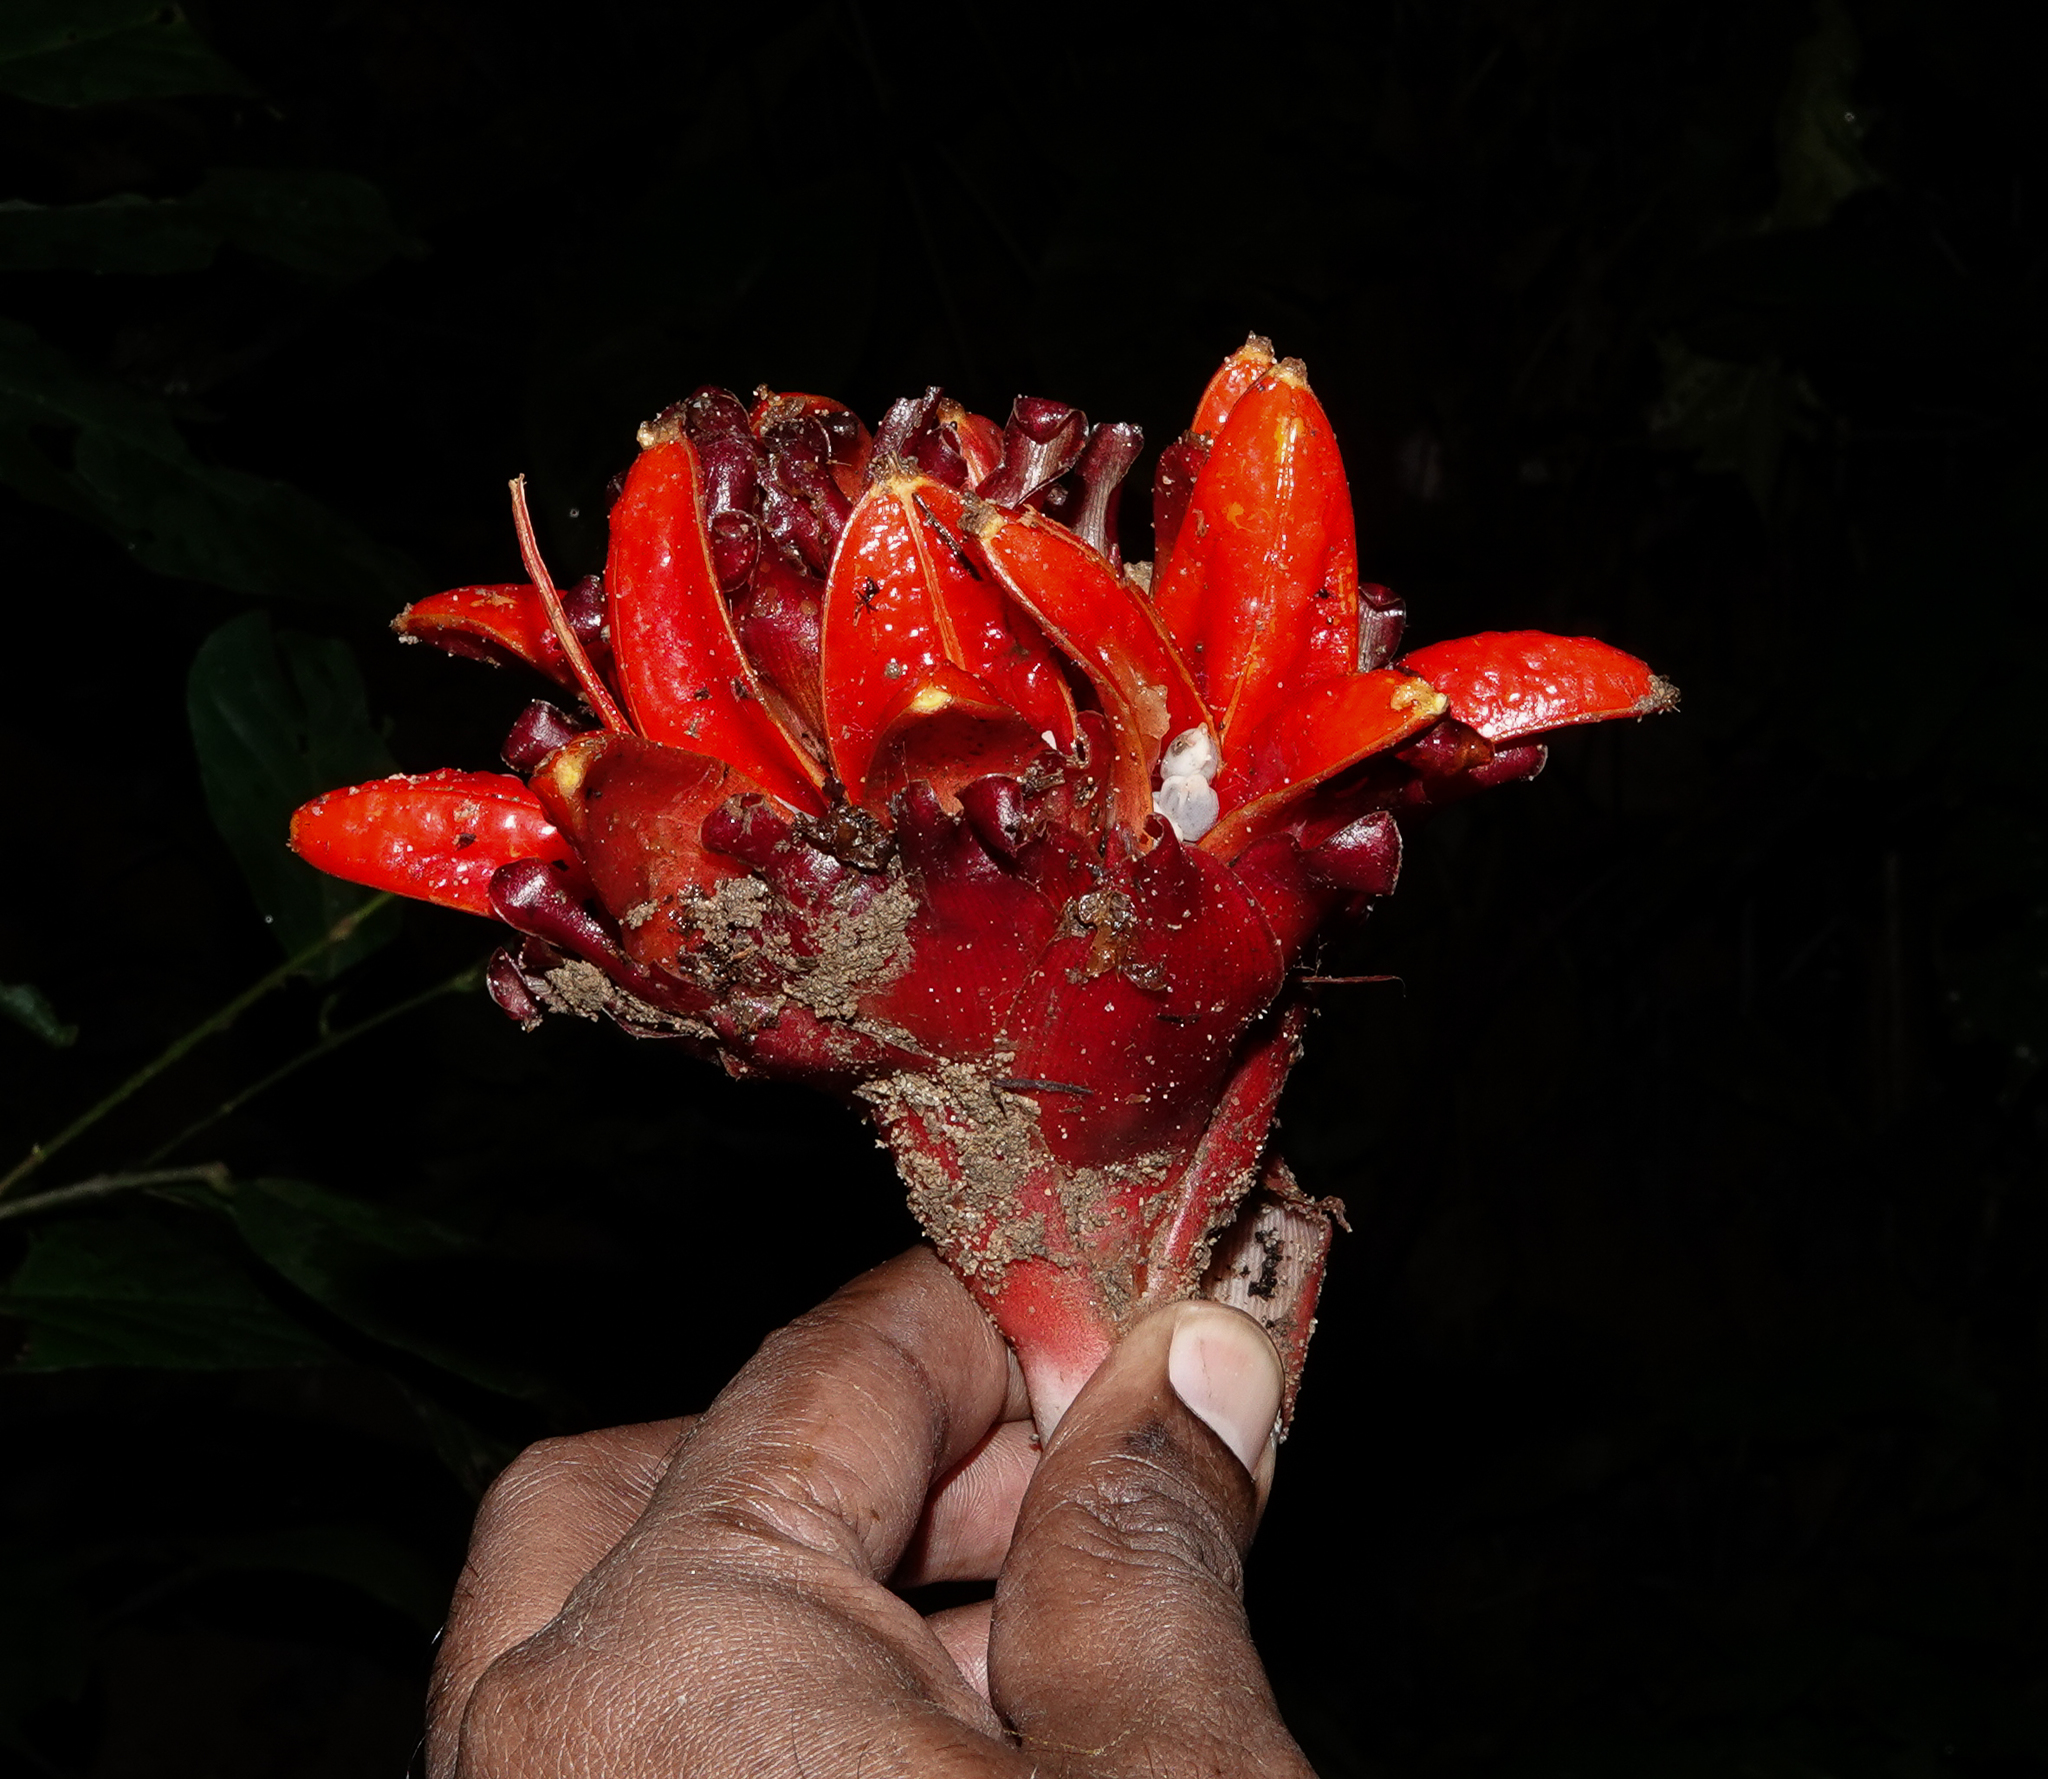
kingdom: Plantae
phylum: Tracheophyta
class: Liliopsida
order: Zingiberales
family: Zingiberaceae
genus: Zingiber
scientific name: Zingiber chrysanthum
